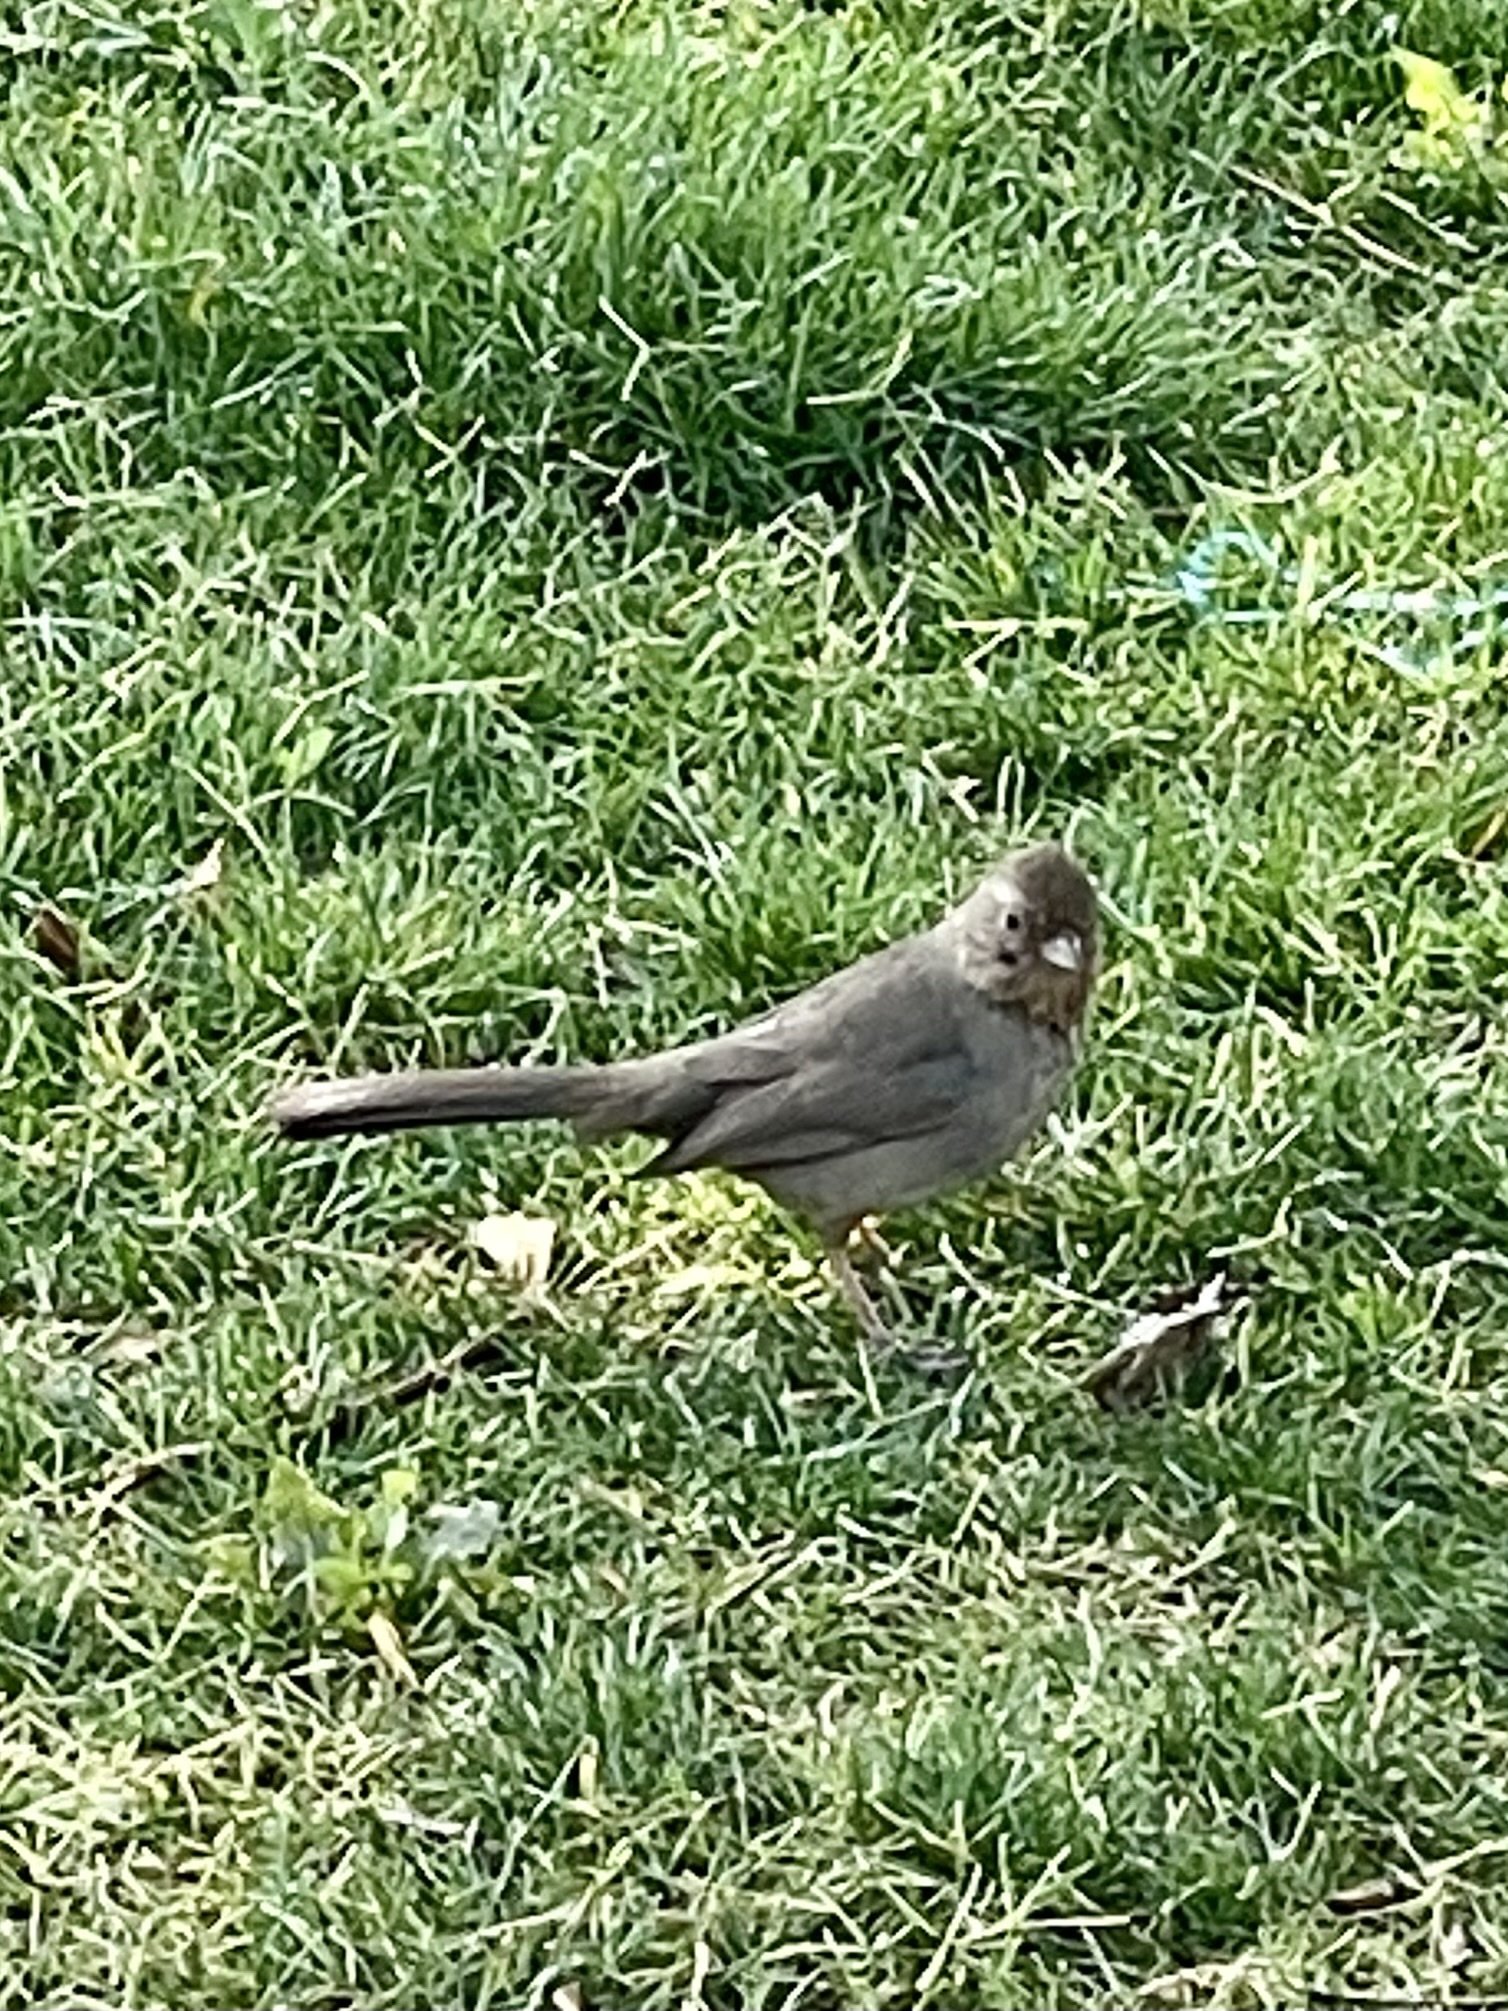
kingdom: Animalia
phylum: Chordata
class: Aves
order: Passeriformes
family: Passerellidae
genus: Melozone
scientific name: Melozone crissalis
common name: California towhee
